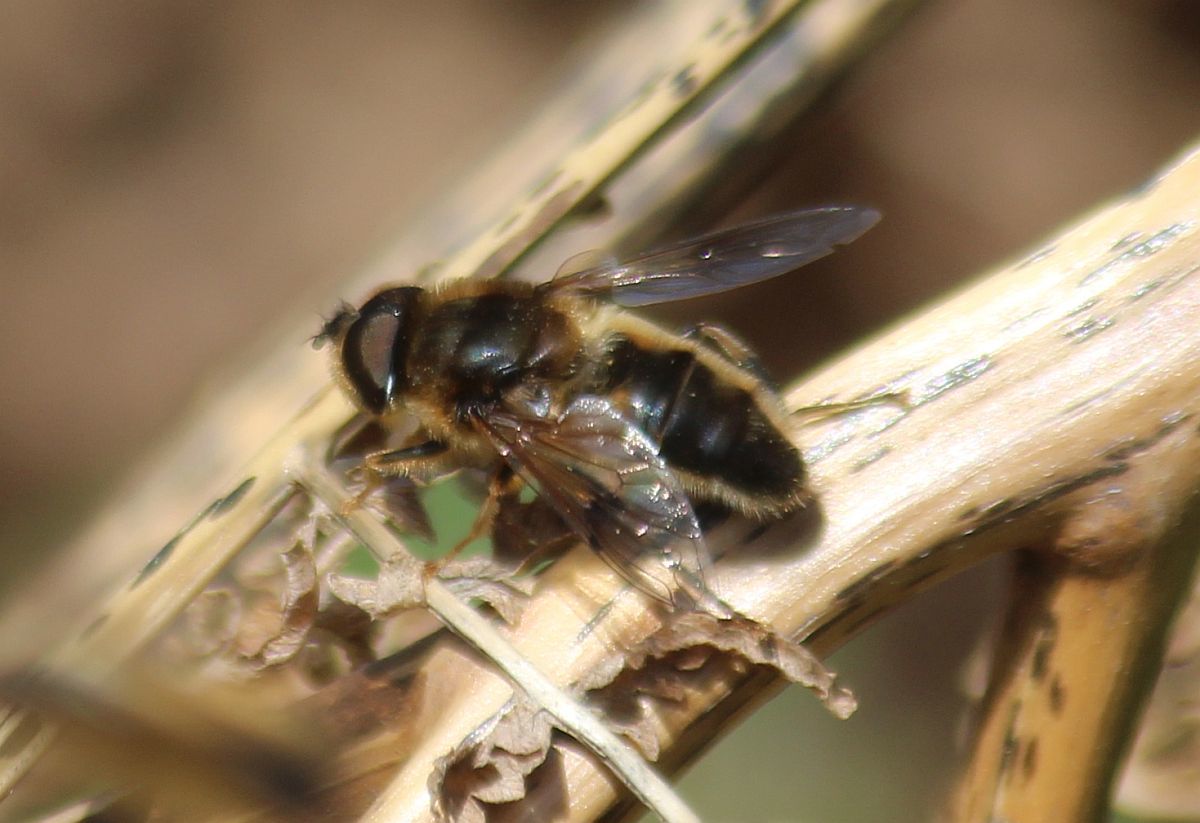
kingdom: Animalia
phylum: Arthropoda
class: Insecta
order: Diptera
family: Syrphidae
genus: Eristalis
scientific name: Eristalis pertinax
